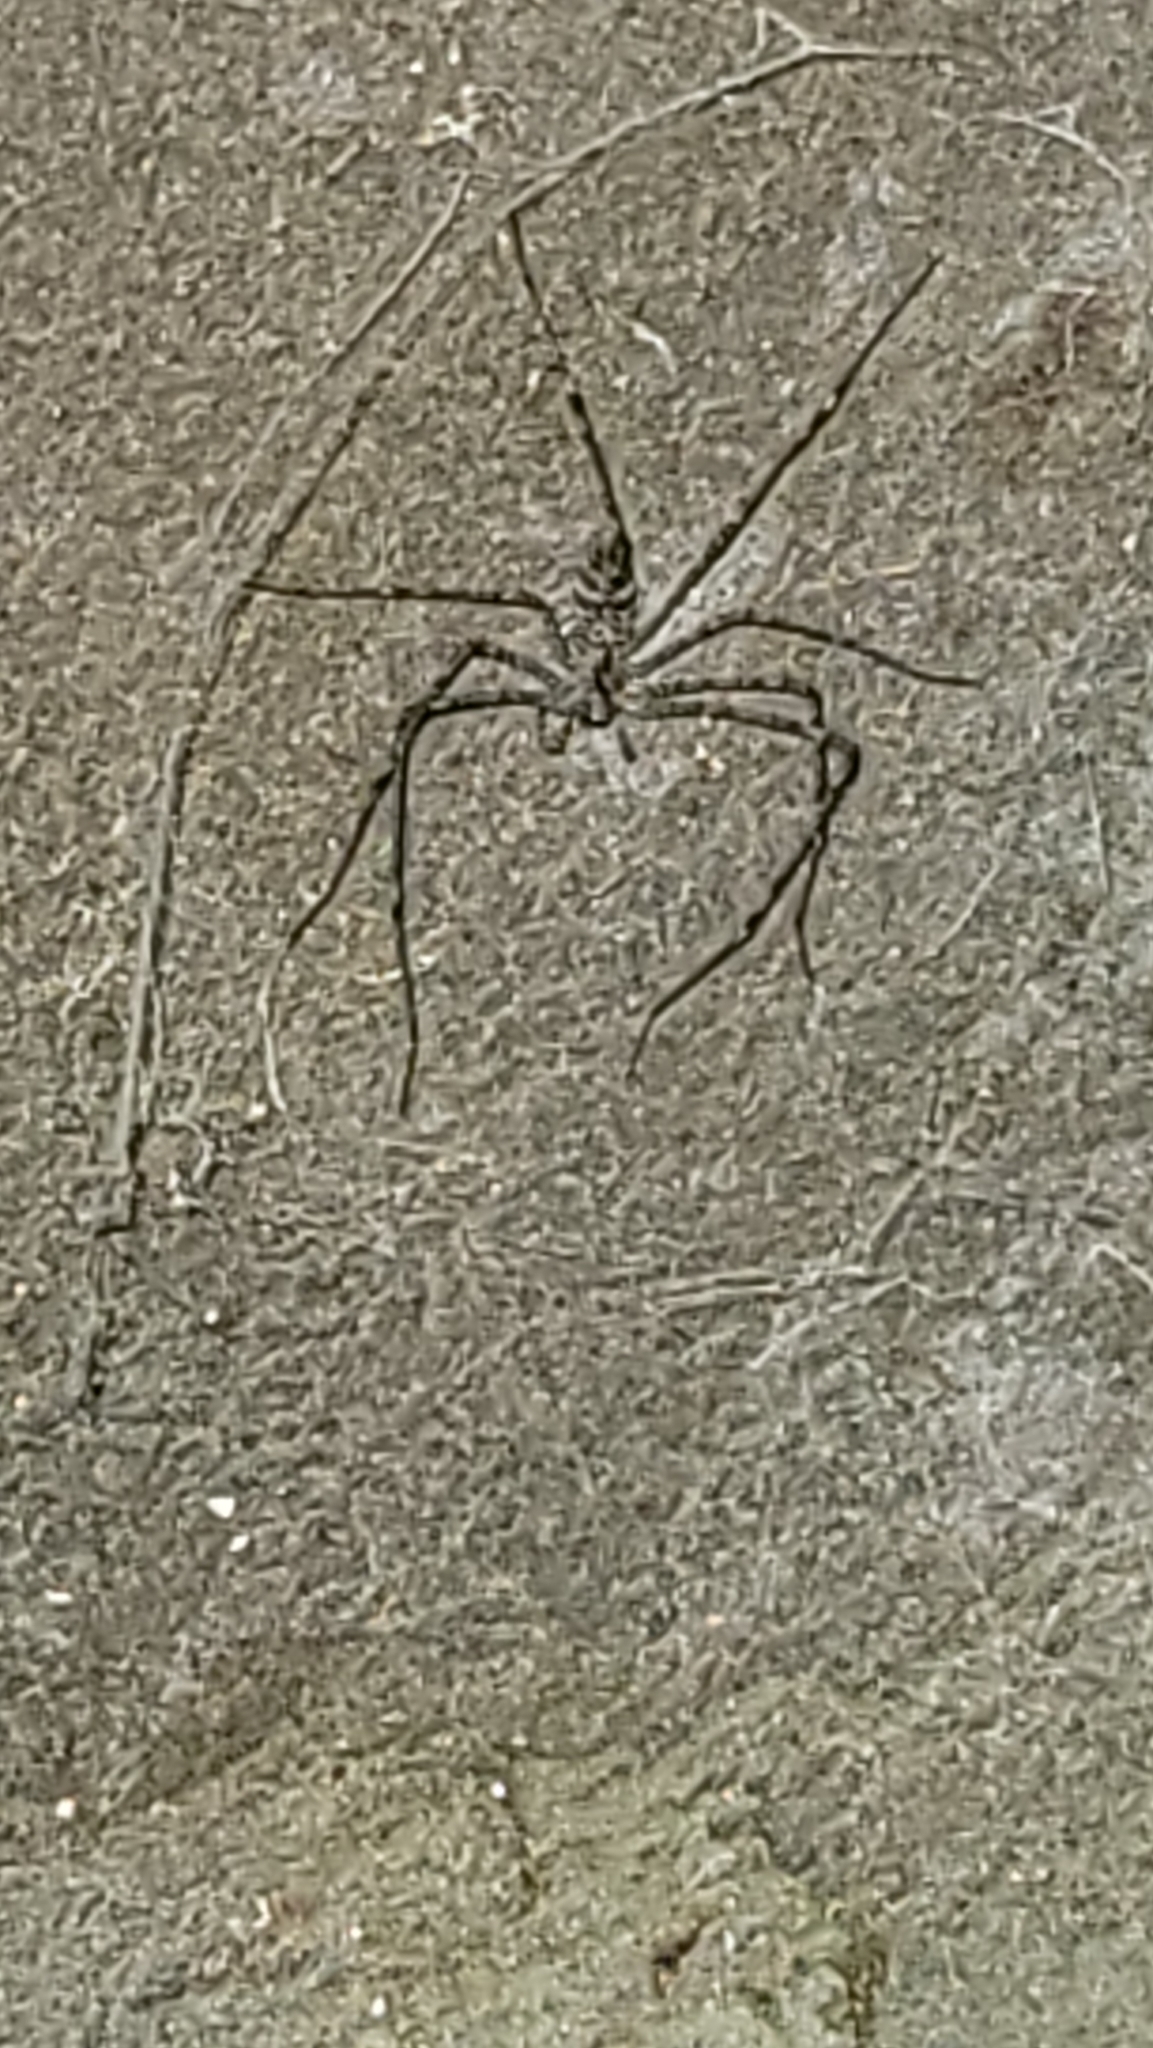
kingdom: Animalia
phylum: Arthropoda
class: Arachnida
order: Araneae
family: Hypochilidae
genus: Hypochilus
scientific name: Hypochilus pococki
